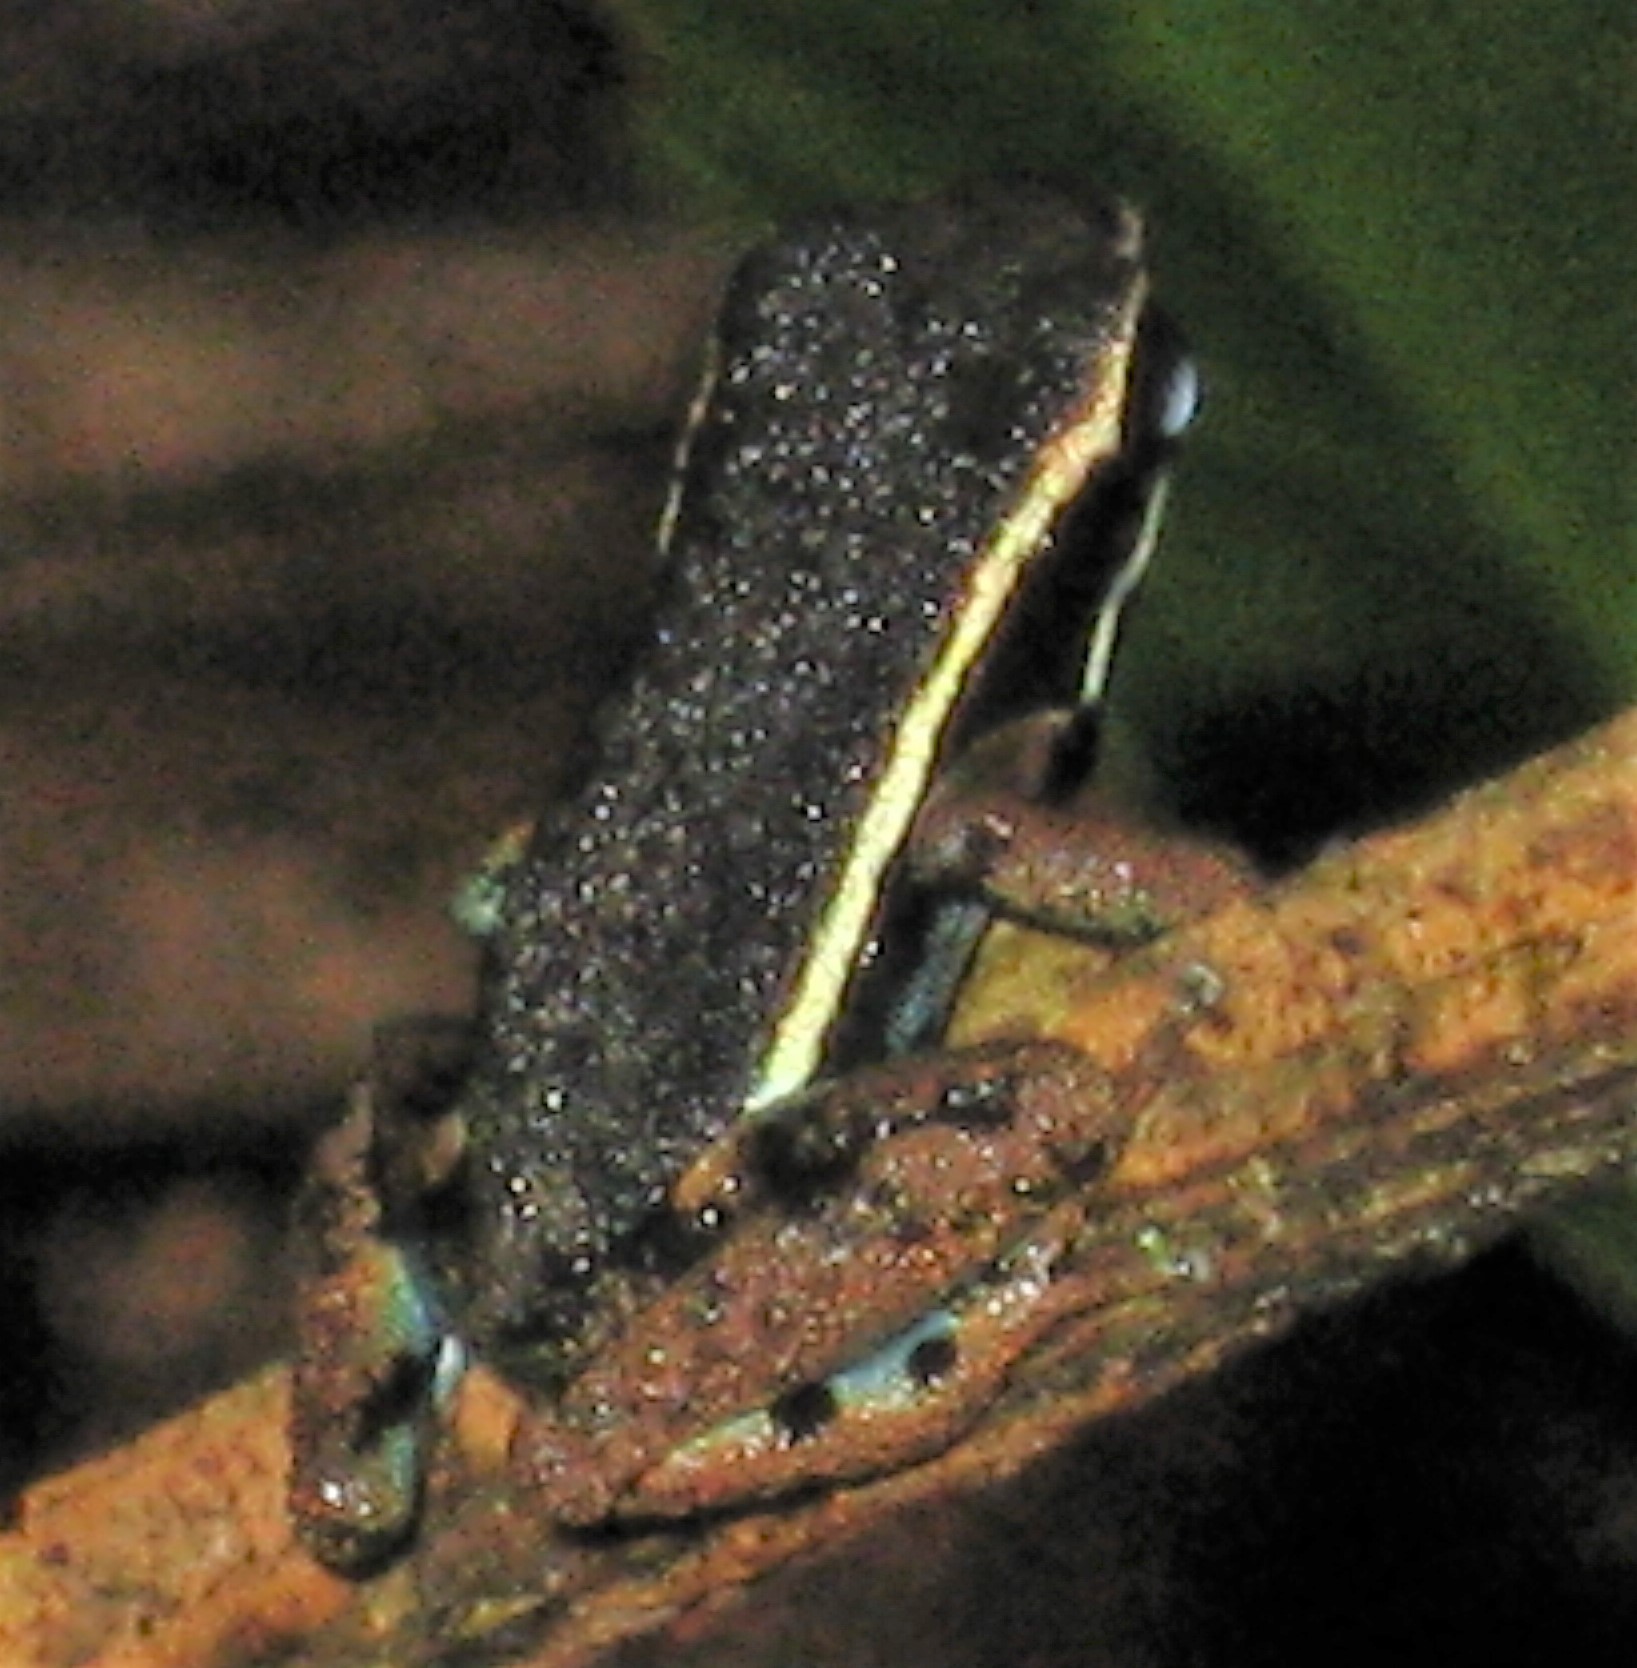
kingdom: Animalia
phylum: Chordata
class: Amphibia
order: Anura
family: Aromobatidae
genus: Allobates
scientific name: Allobates femoralis
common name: Brilliant-thighed poison frog
